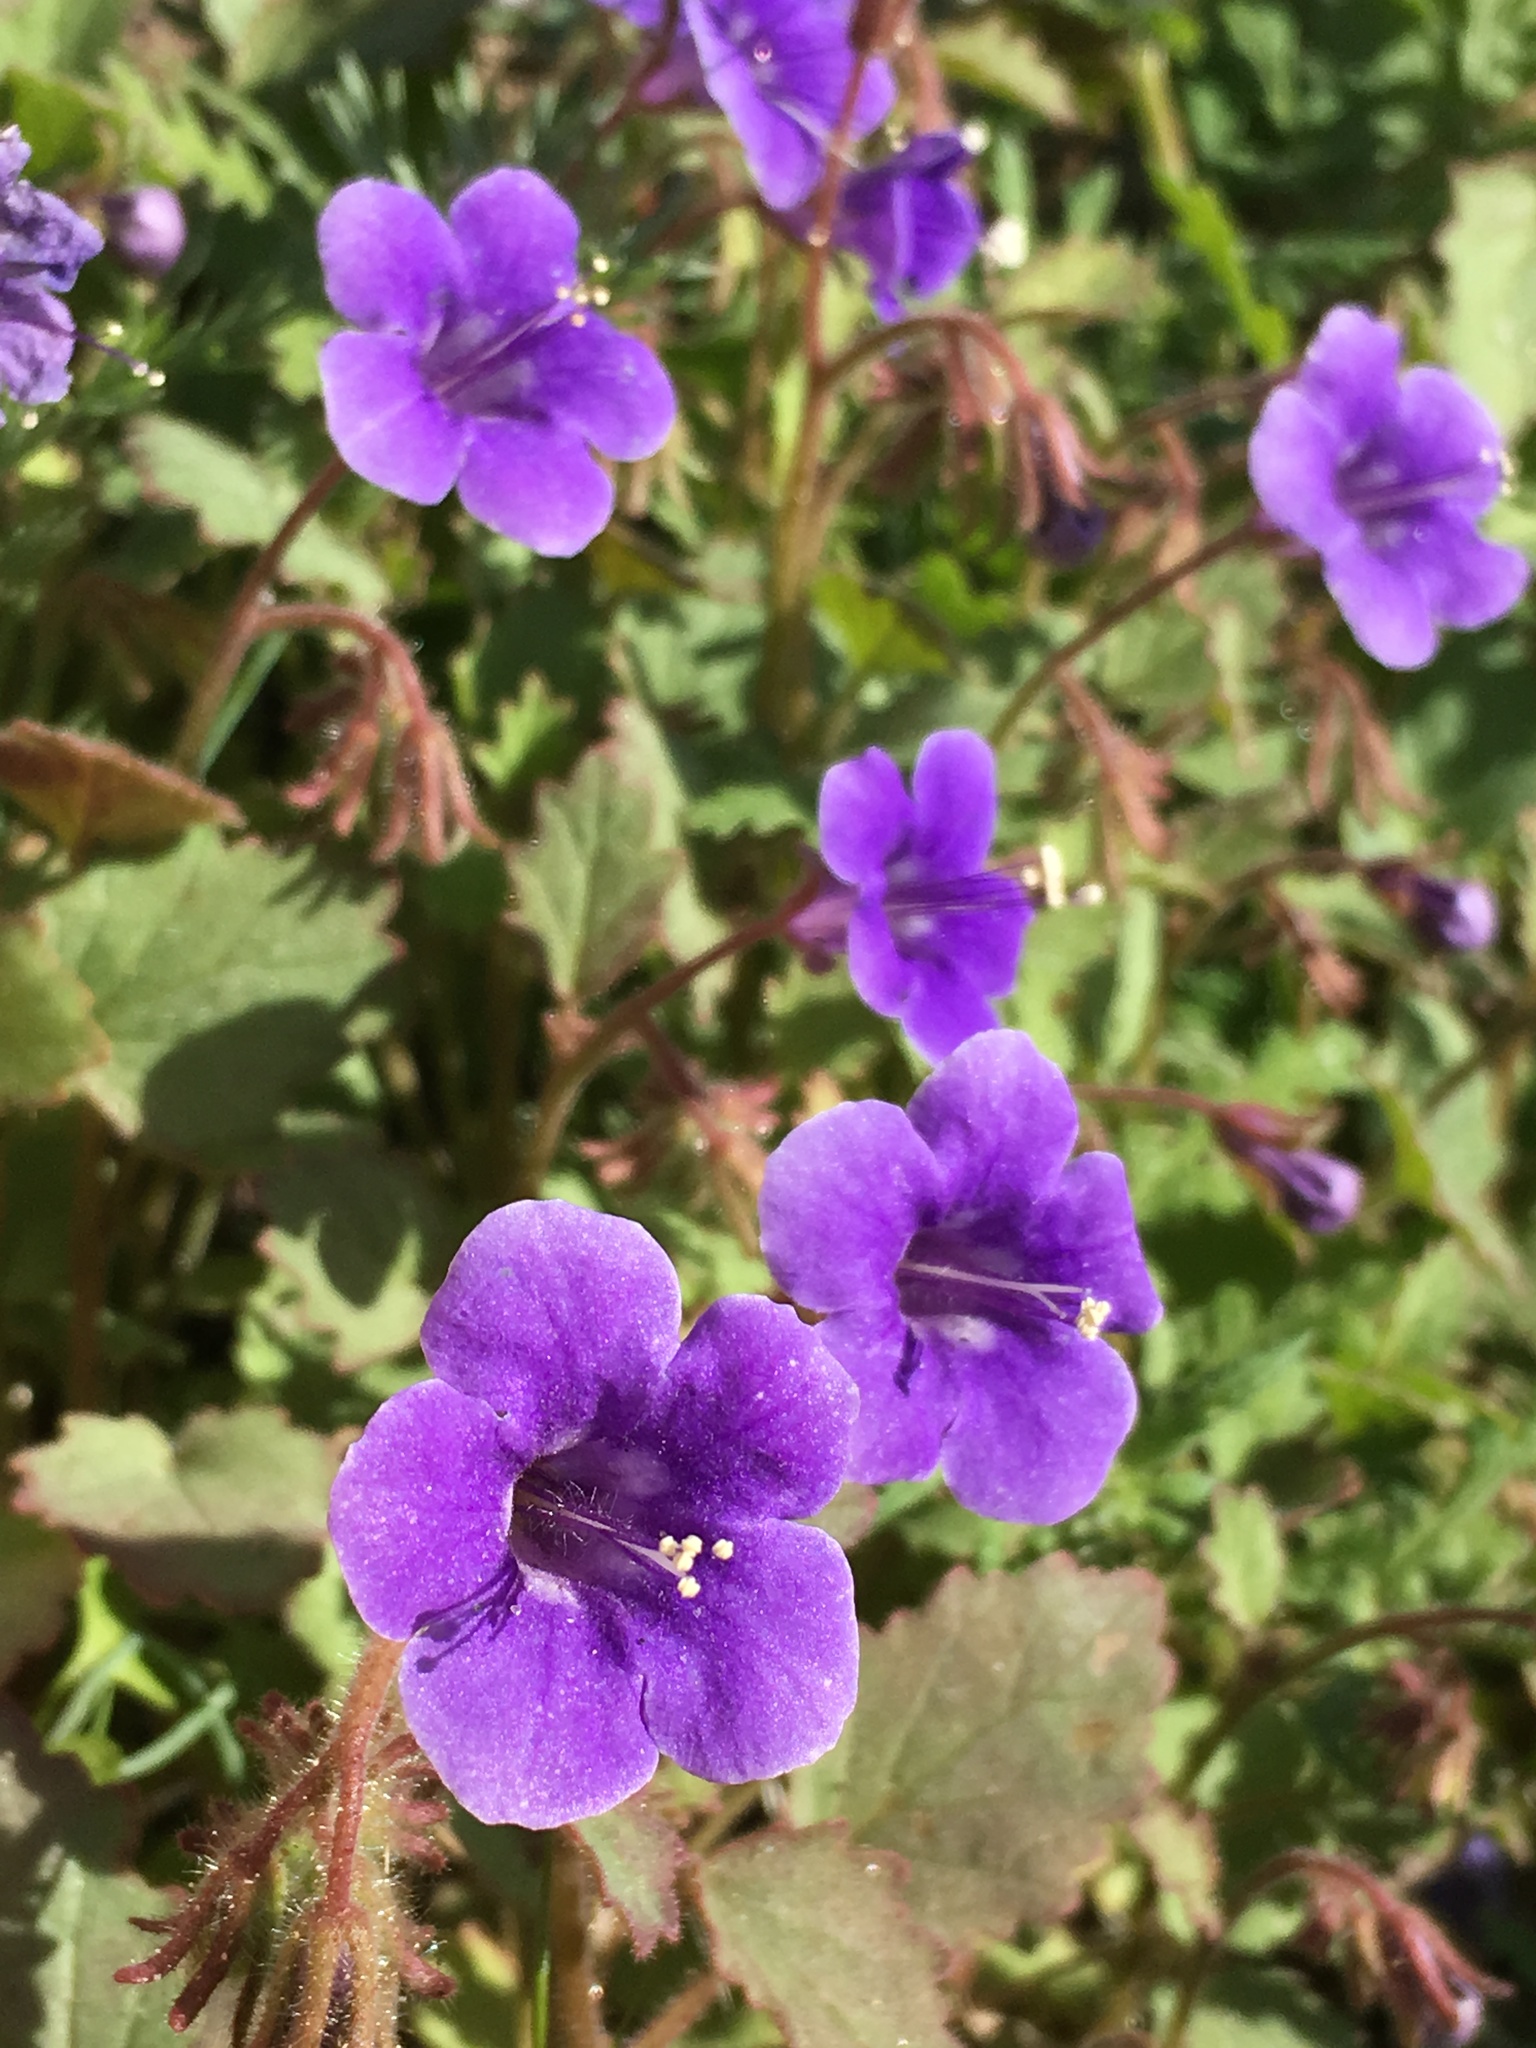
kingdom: Plantae
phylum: Tracheophyta
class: Magnoliopsida
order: Boraginales
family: Hydrophyllaceae
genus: Phacelia
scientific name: Phacelia minor
